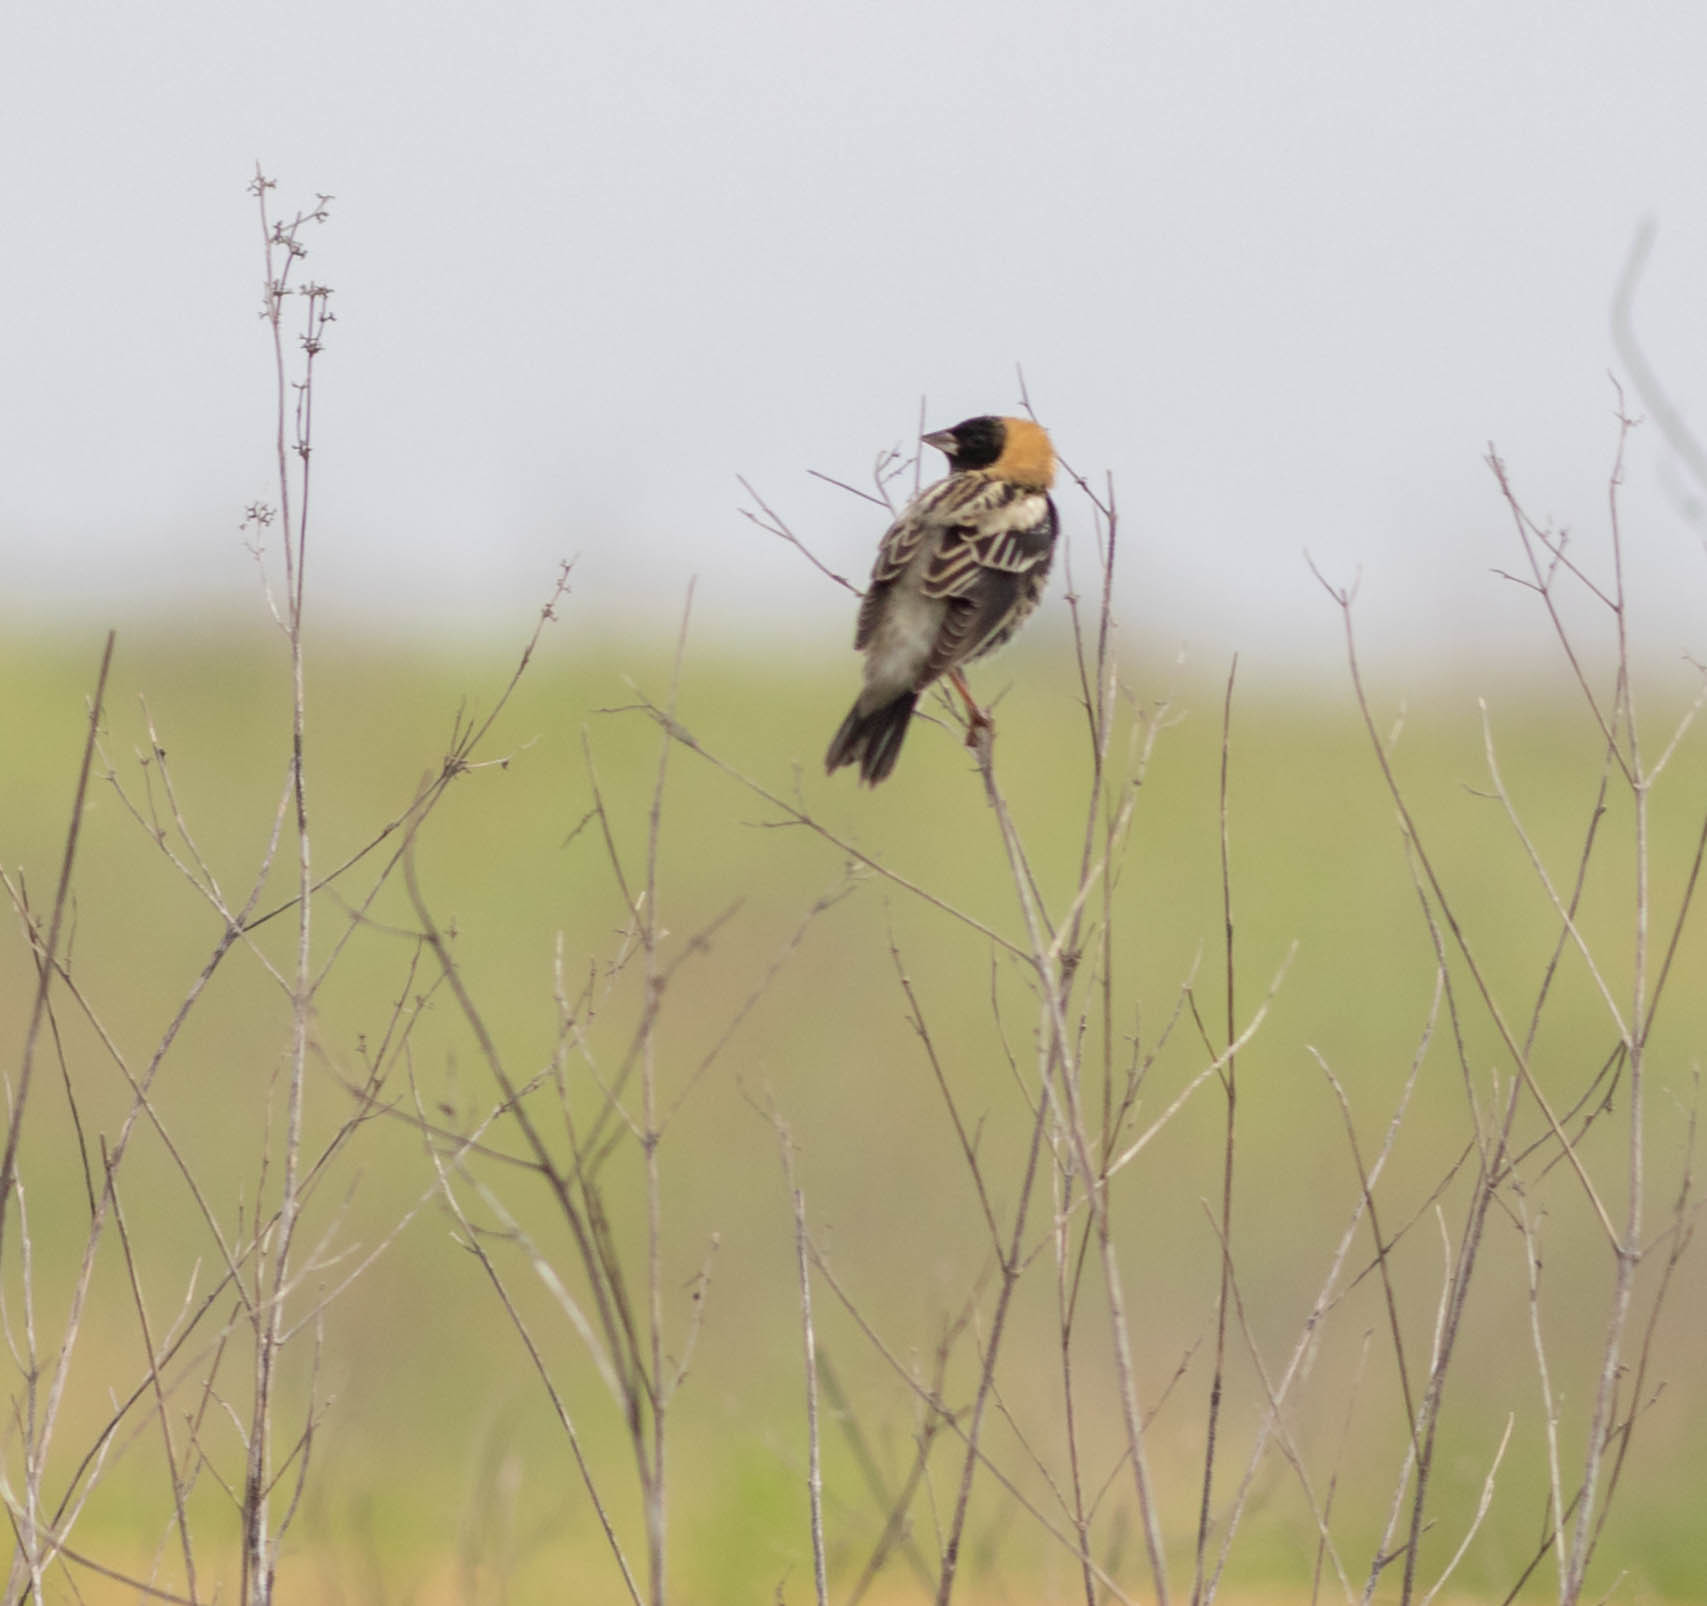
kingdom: Animalia
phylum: Chordata
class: Aves
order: Passeriformes
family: Icteridae
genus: Dolichonyx
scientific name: Dolichonyx oryzivorus
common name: Bobolink
